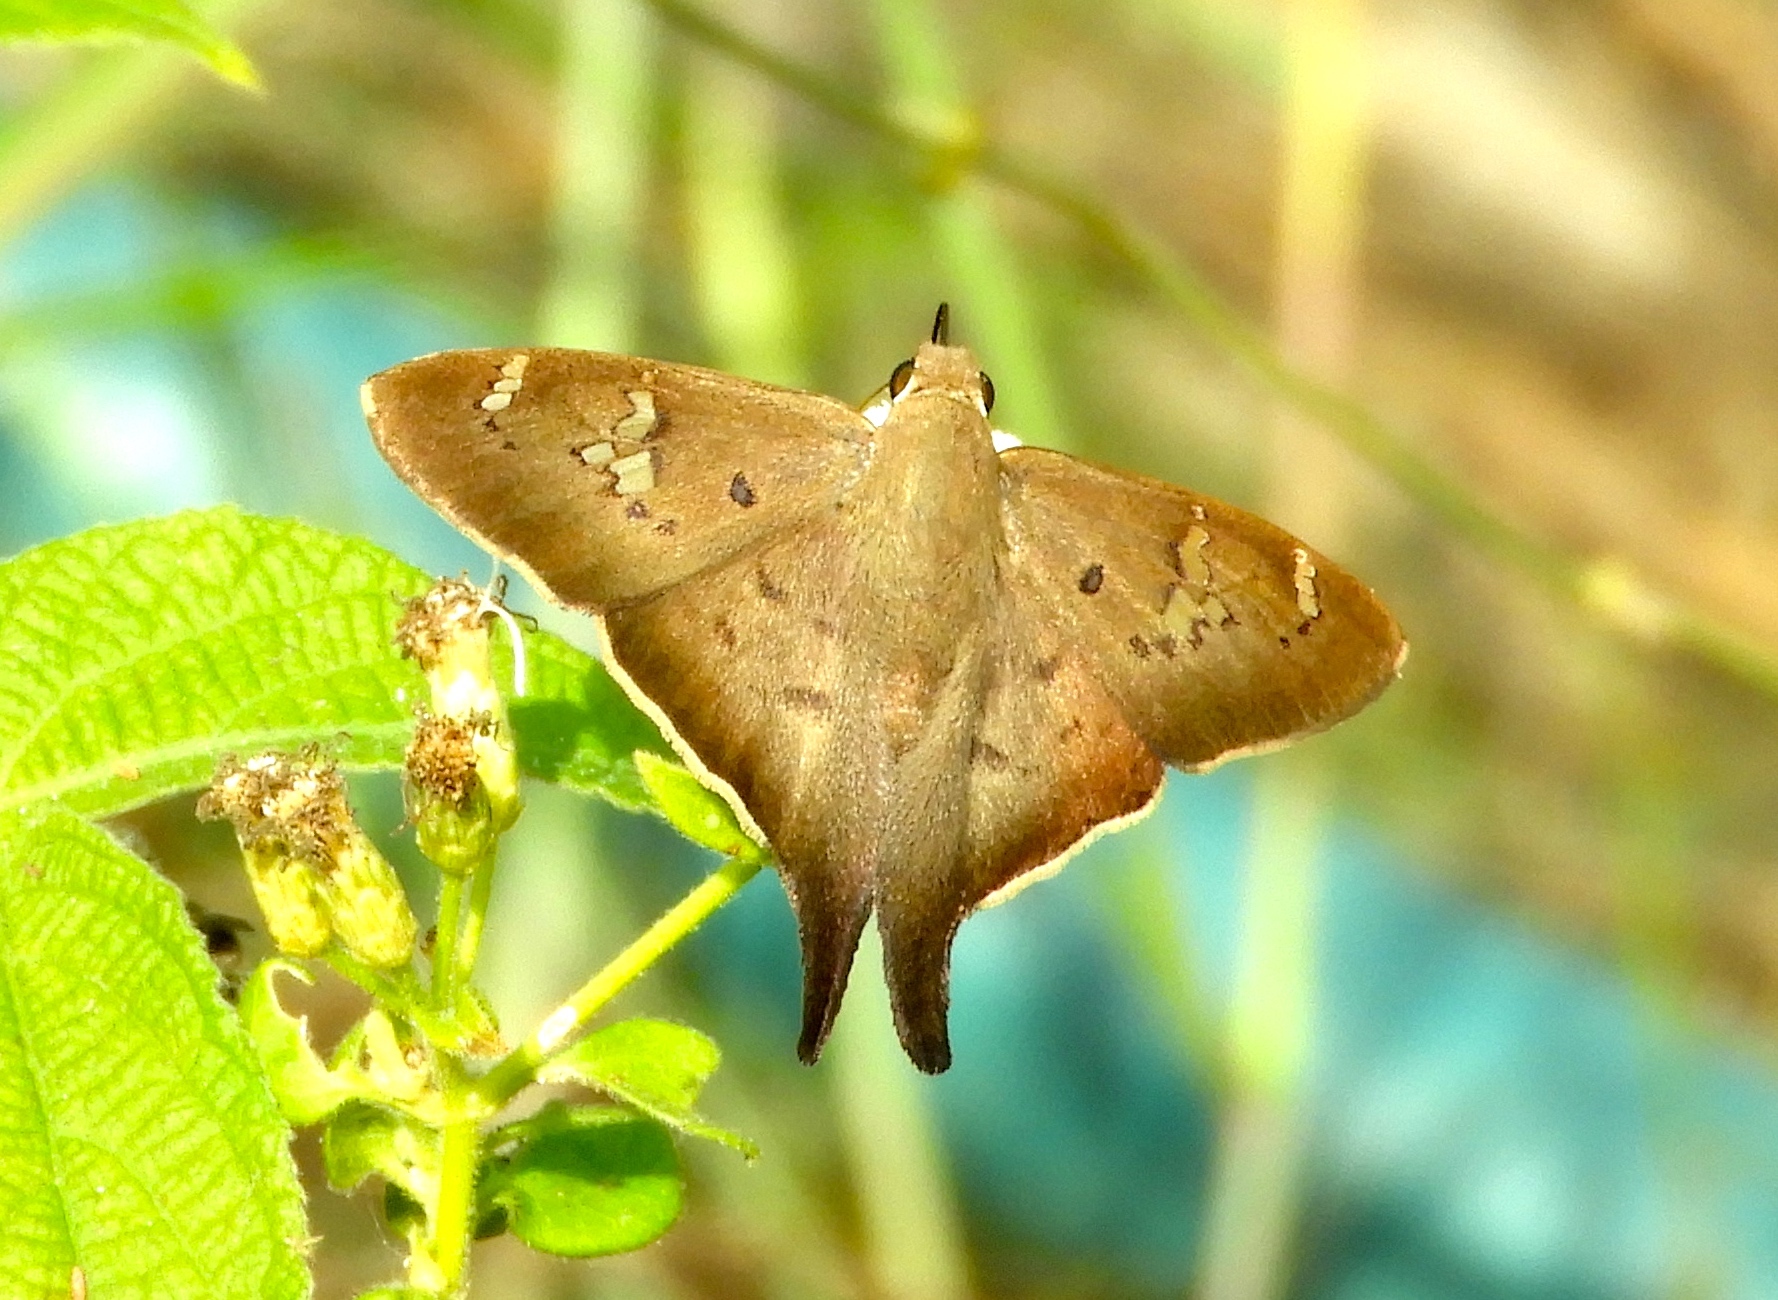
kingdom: Animalia
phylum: Arthropoda
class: Insecta
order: Lepidoptera
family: Hesperiidae
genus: Ectomis
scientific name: Ectomis
